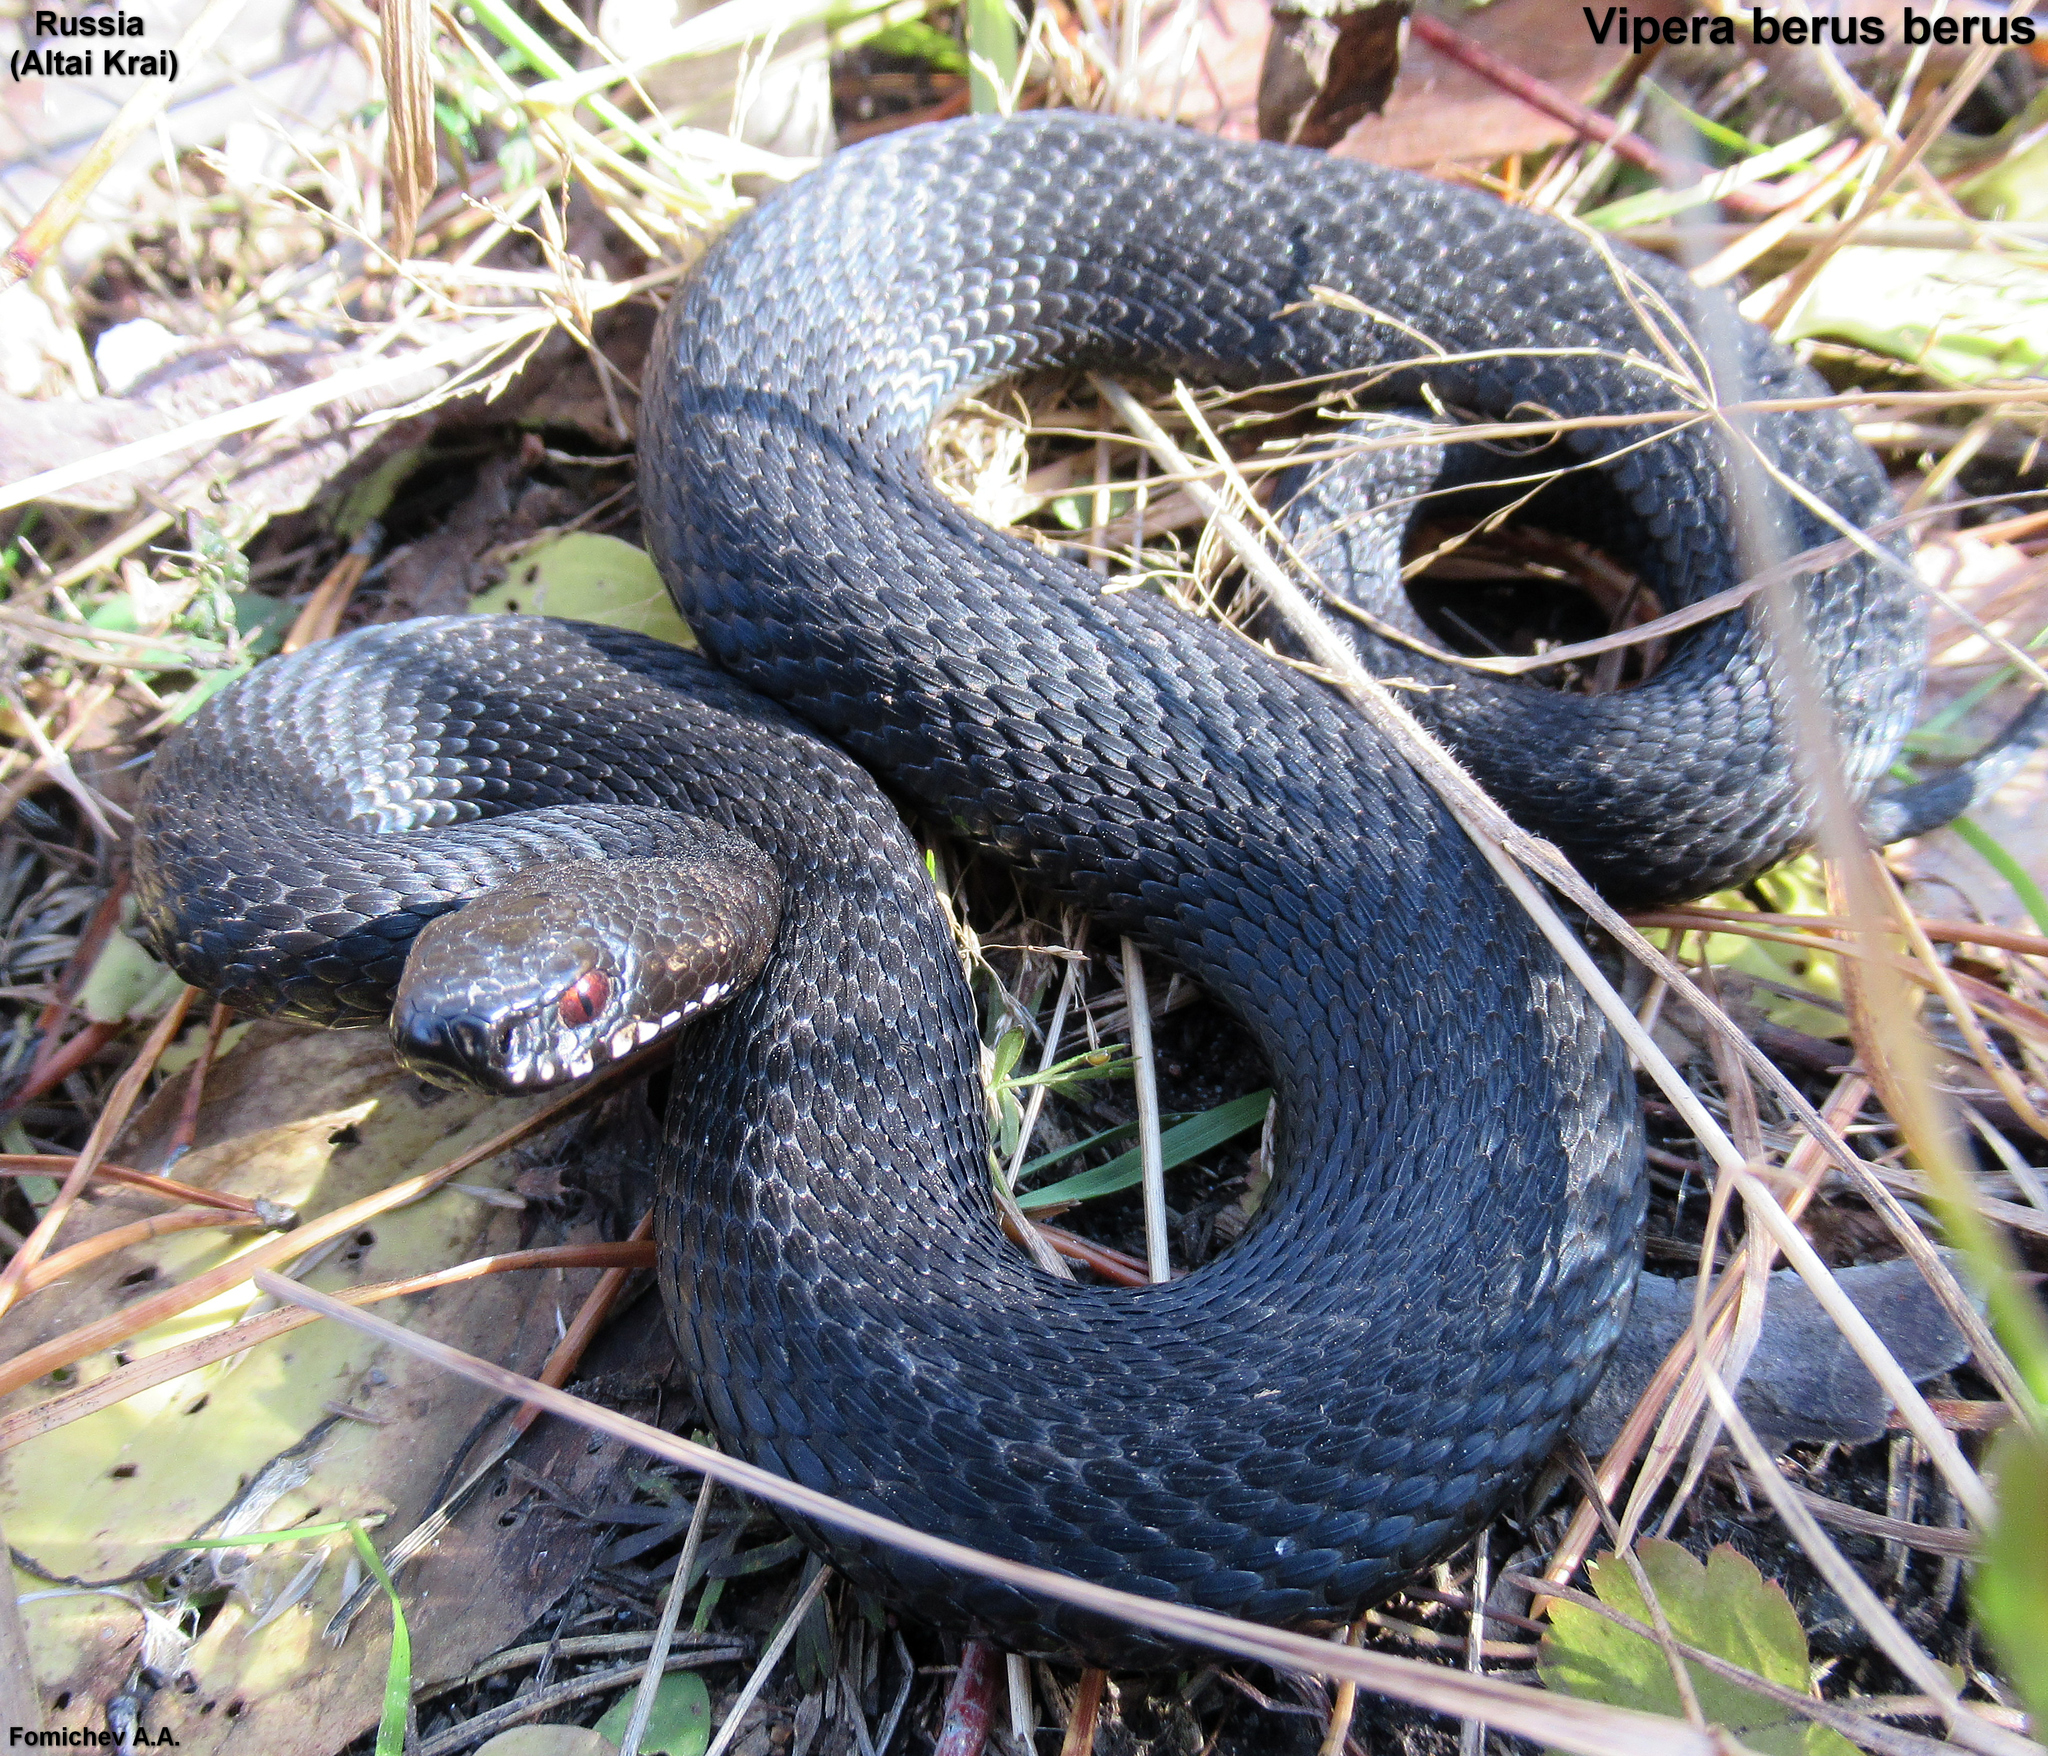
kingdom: Animalia
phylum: Chordata
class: Squamata
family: Viperidae
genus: Vipera
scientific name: Vipera berus
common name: Adder
